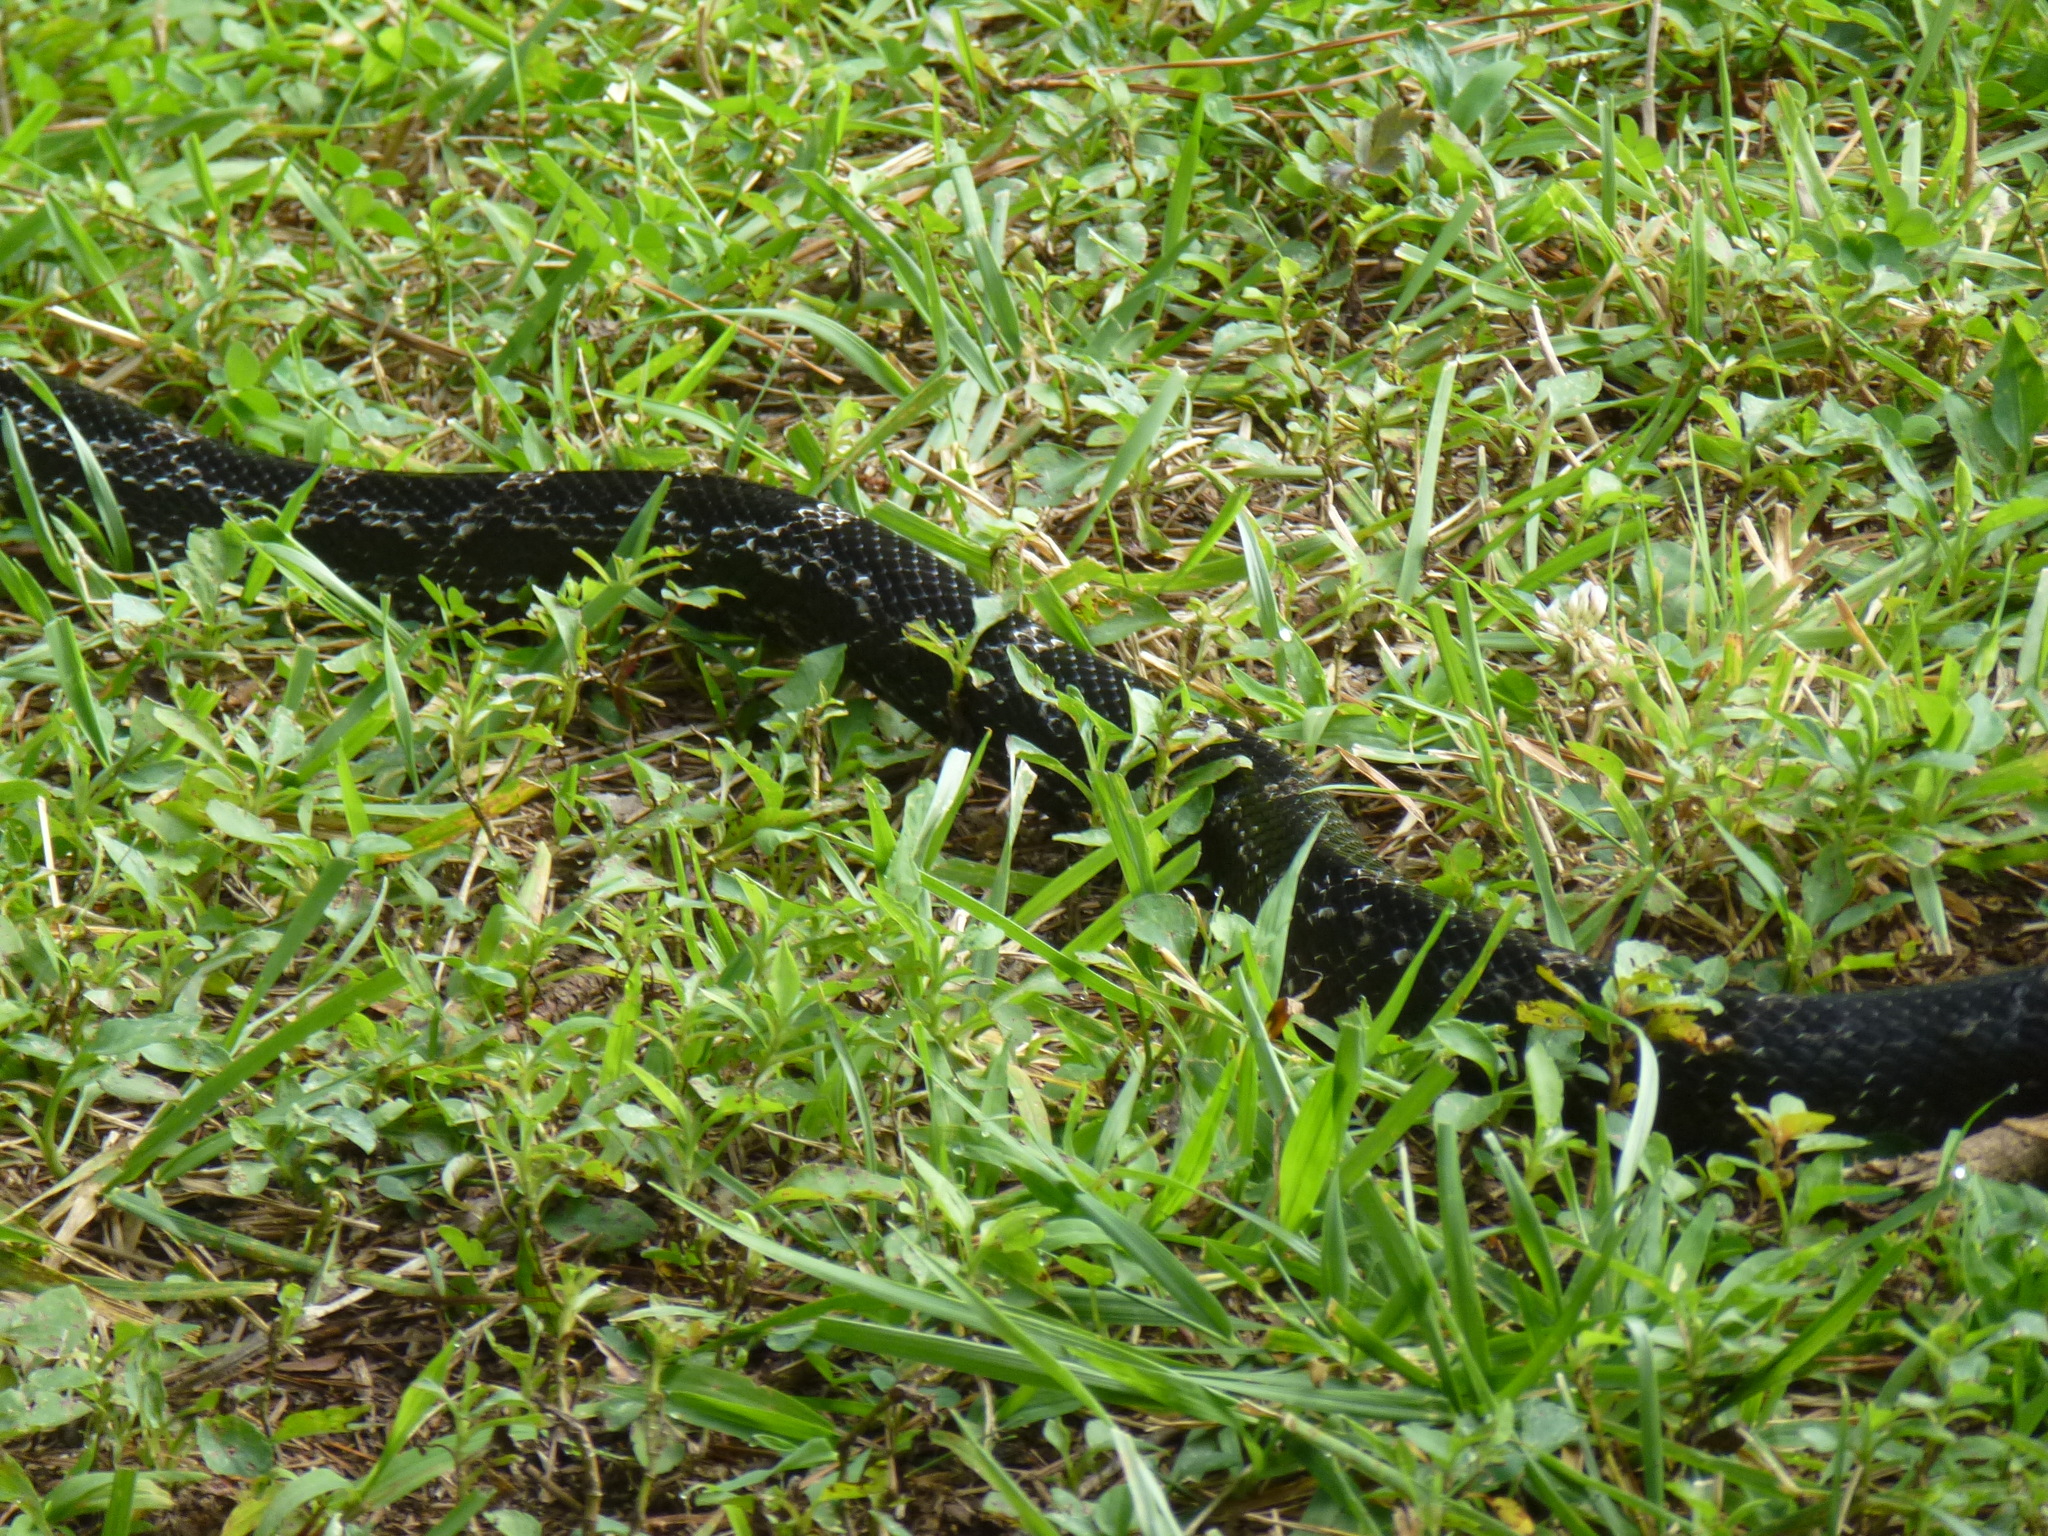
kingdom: Animalia
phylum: Chordata
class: Squamata
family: Colubridae
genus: Pantherophis
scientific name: Pantherophis spiloides
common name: Gray rat snake
